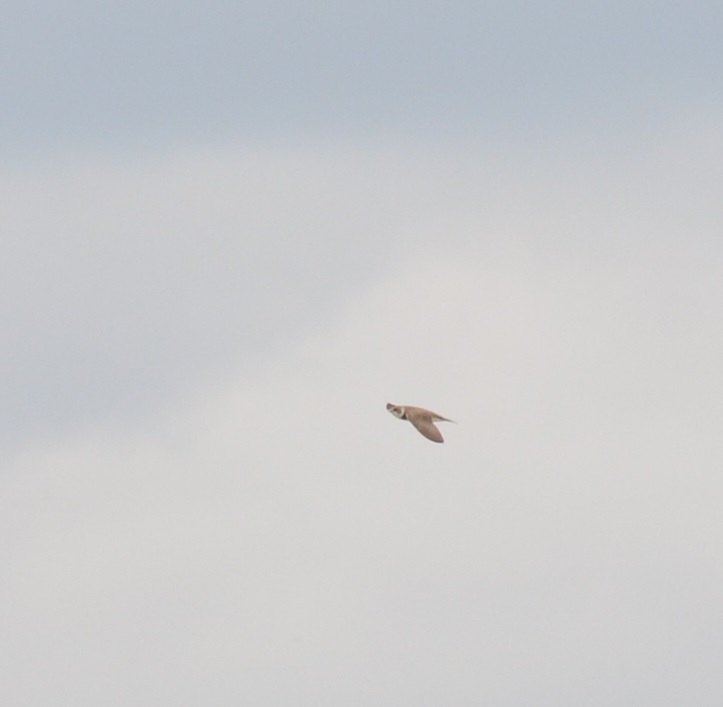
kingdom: Animalia
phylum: Chordata
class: Aves
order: Passeriformes
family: Hirundinidae
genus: Riparia
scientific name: Riparia riparia
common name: Sand martin
